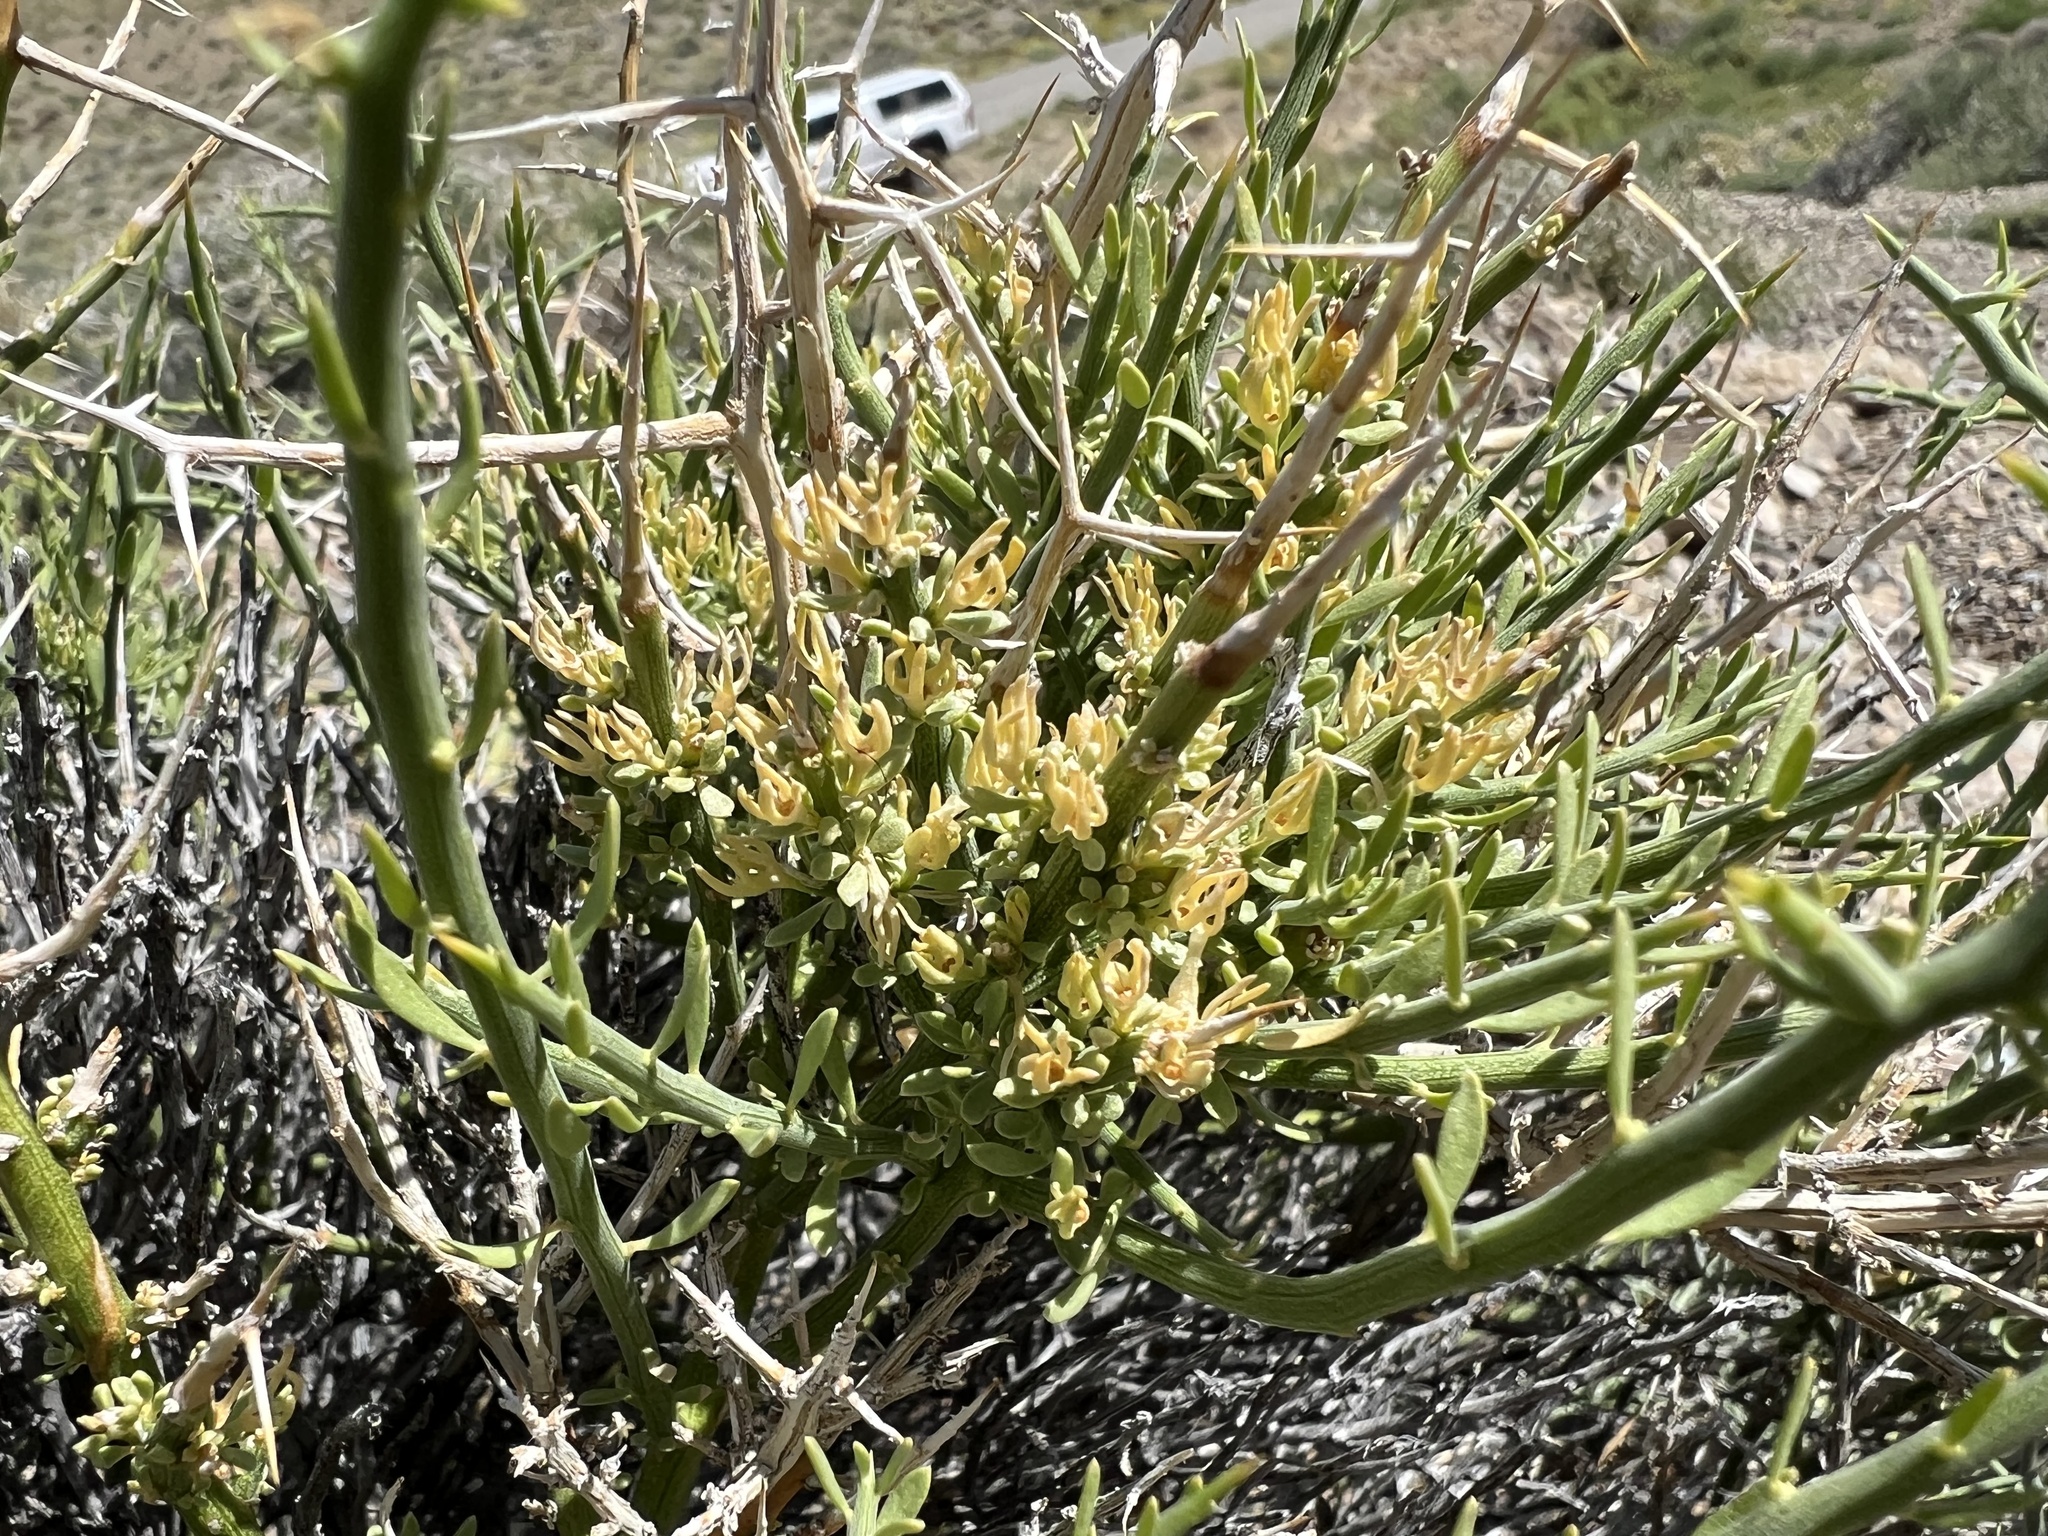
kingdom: Plantae
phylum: Tracheophyta
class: Magnoliopsida
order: Lamiales
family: Oleaceae
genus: Menodora
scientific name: Menodora spinescens
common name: Spiny menodora
